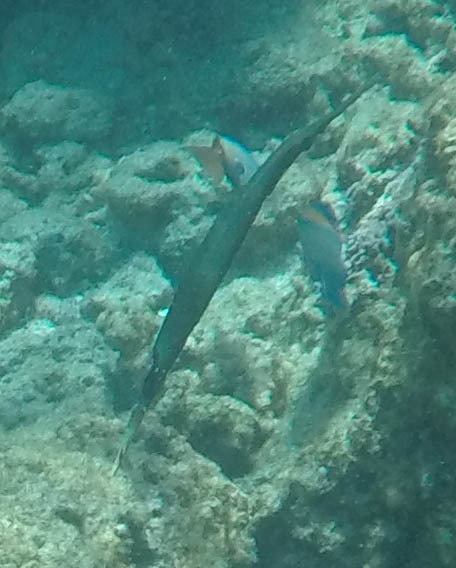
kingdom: Animalia
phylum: Chordata
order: Syngnathiformes
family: Aulostomidae
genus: Aulostomus
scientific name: Aulostomus chinensis
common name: Chinese trumpetfish
